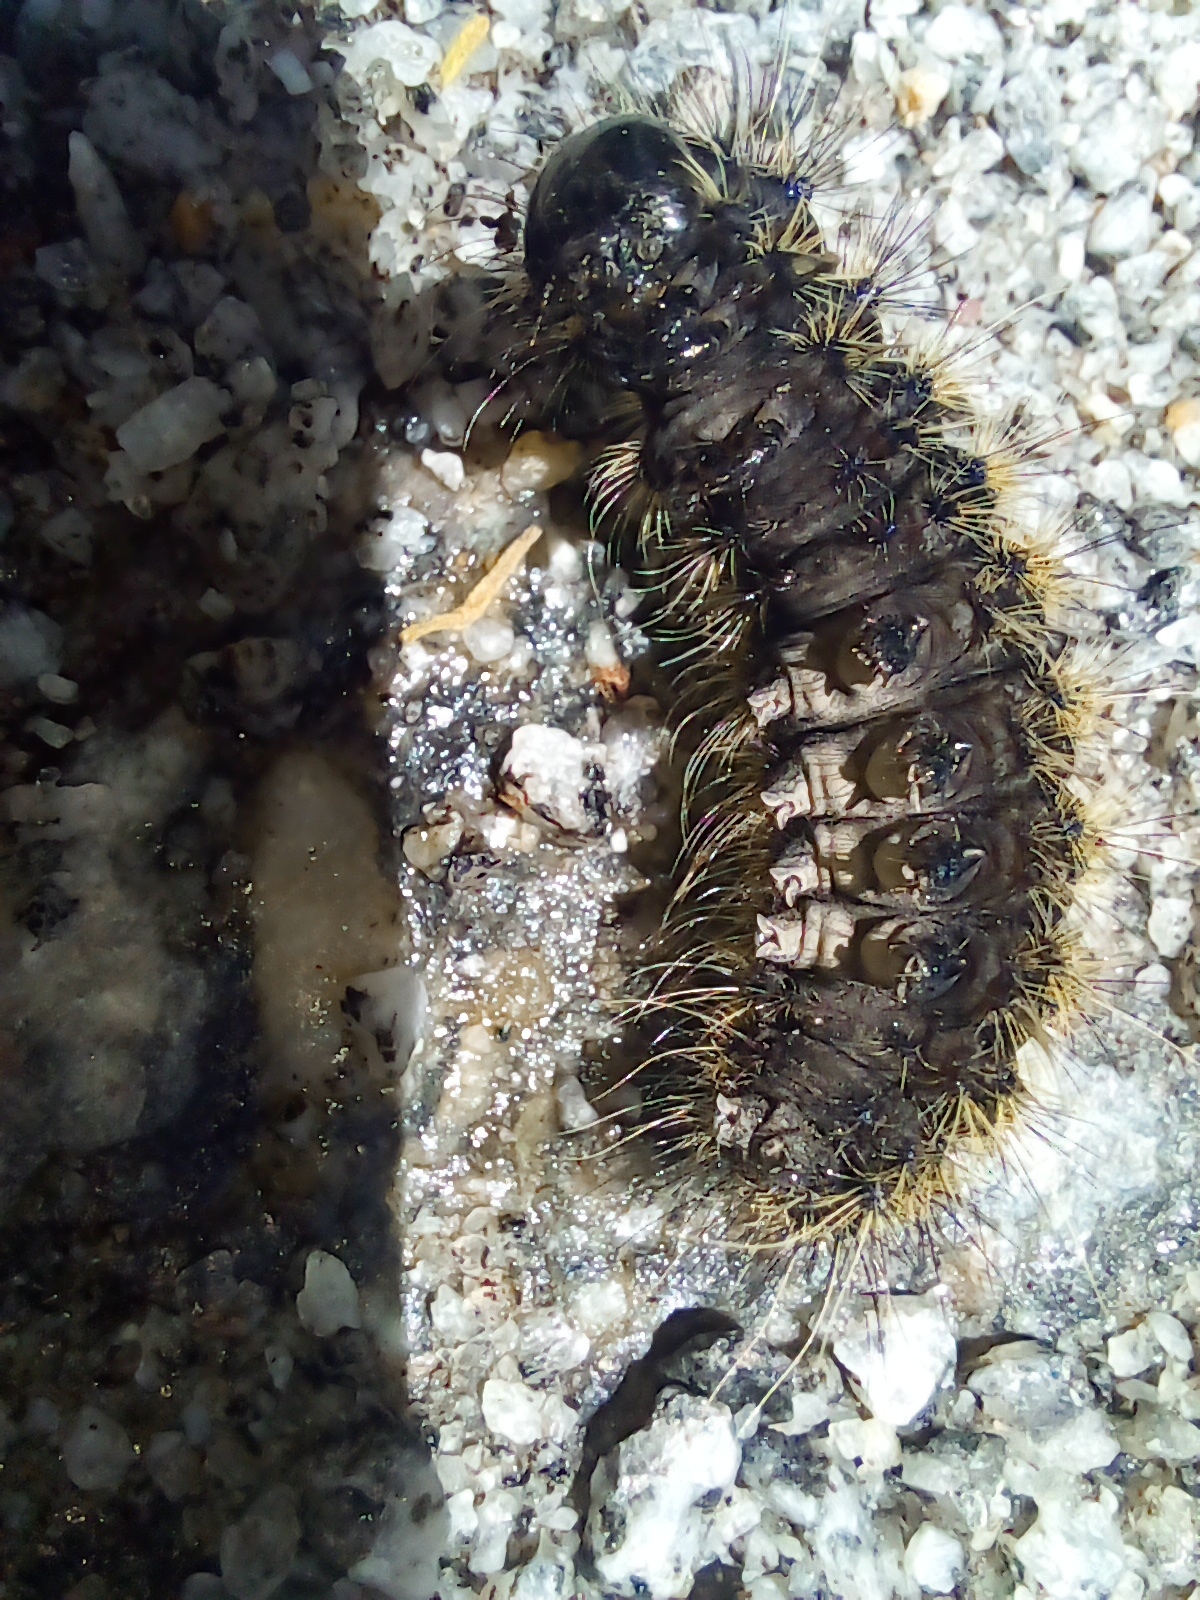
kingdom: Animalia
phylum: Arthropoda
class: Insecta
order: Lepidoptera
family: Erebidae
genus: Dysschema
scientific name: Dysschema centenaria
